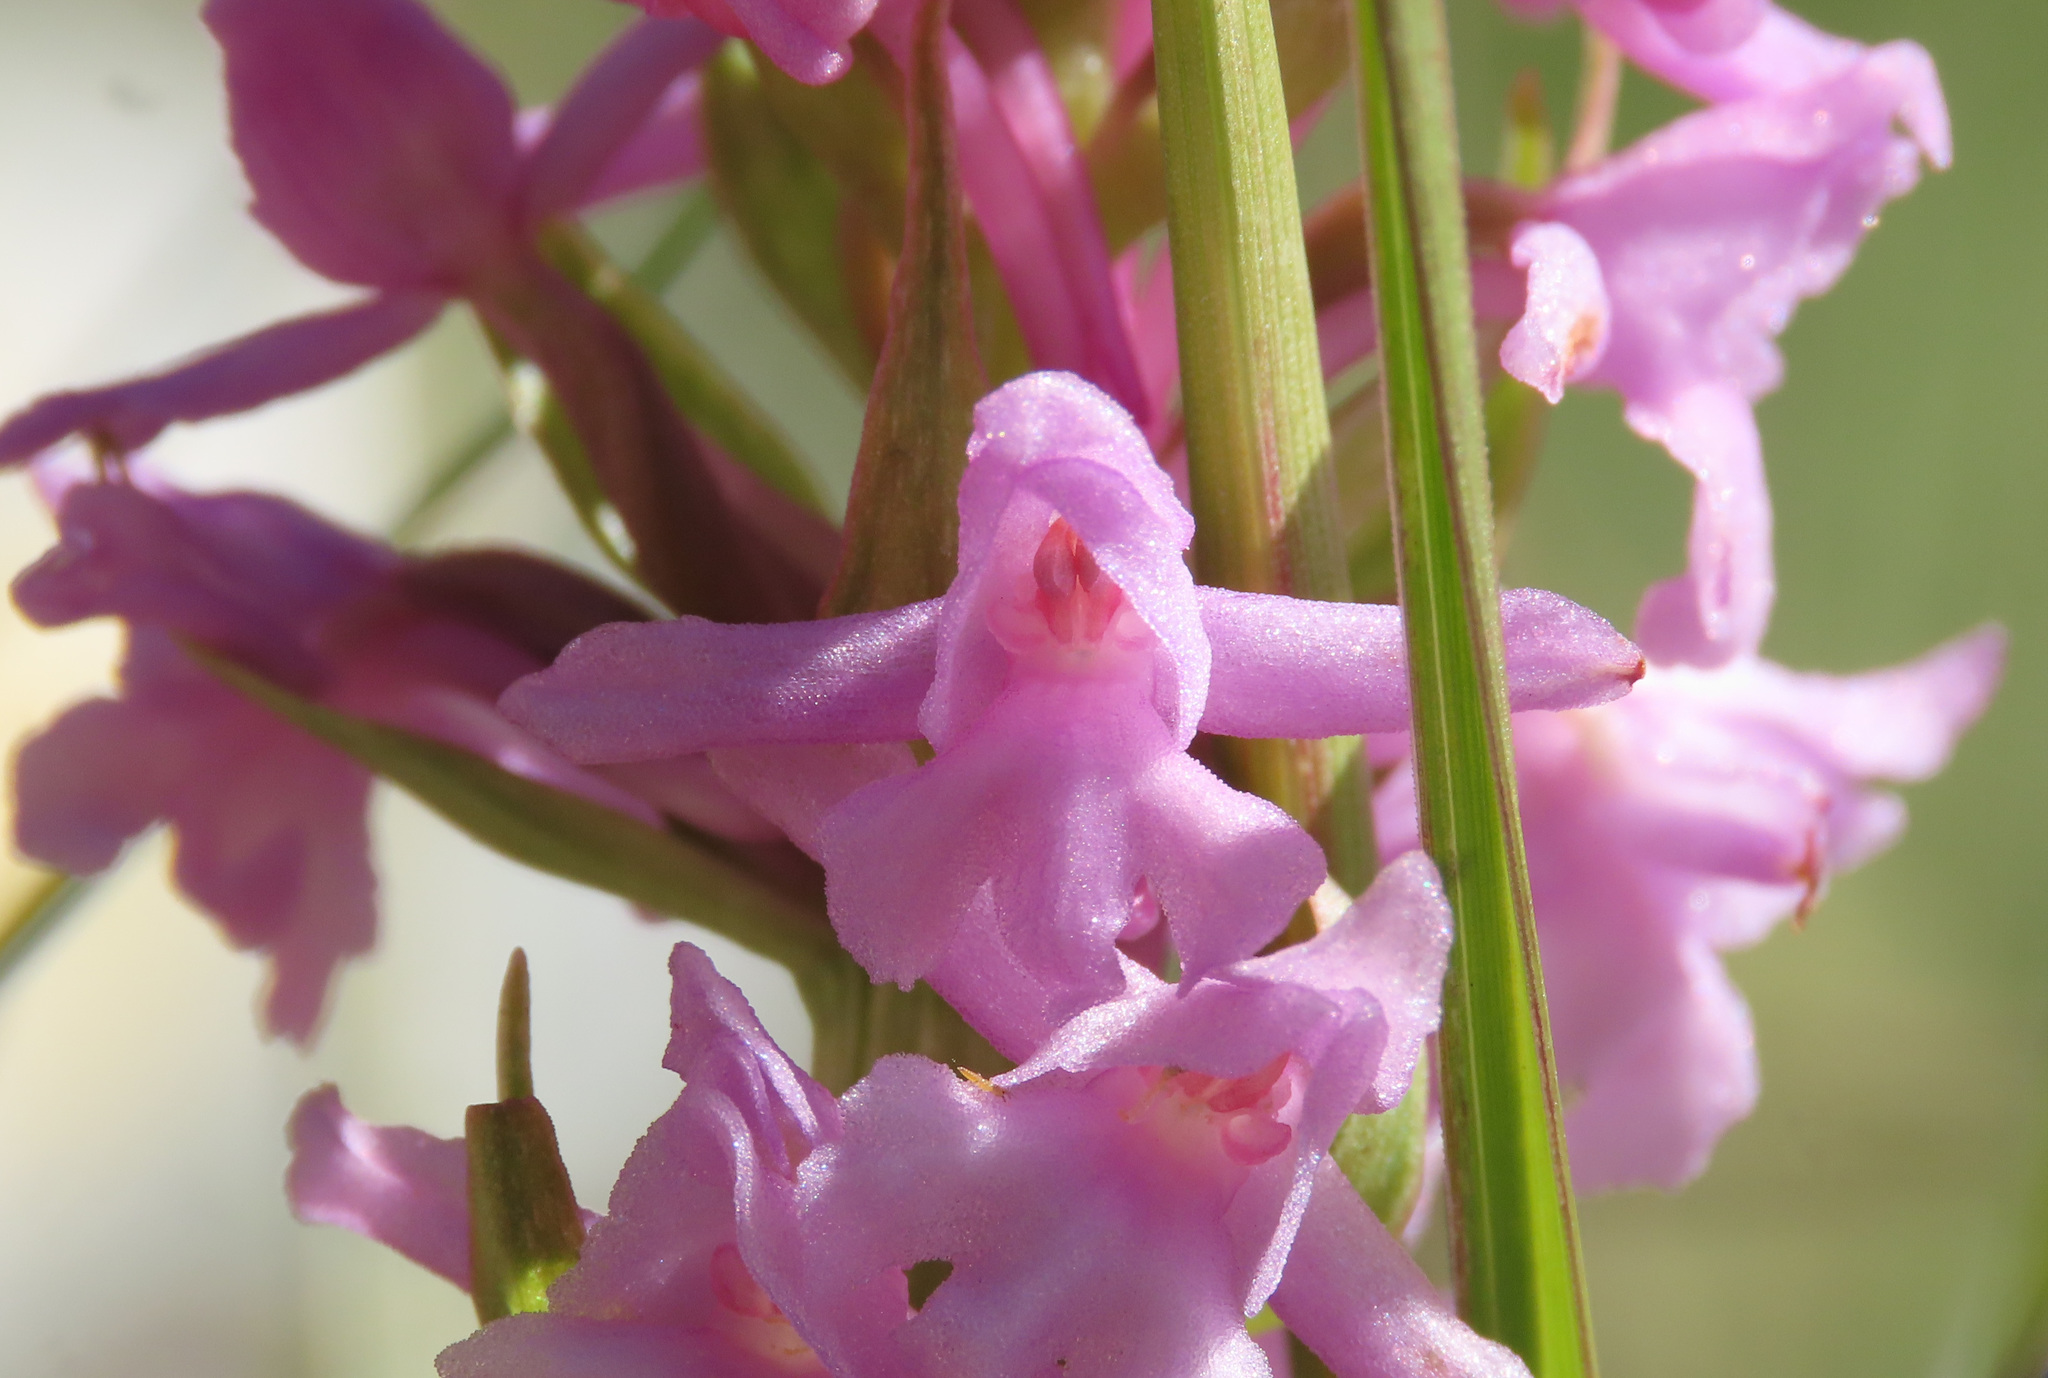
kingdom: Plantae
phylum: Tracheophyta
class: Liliopsida
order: Asparagales
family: Orchidaceae
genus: Gymnadenia
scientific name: Gymnadenia conopsea
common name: Fragrant orchid
